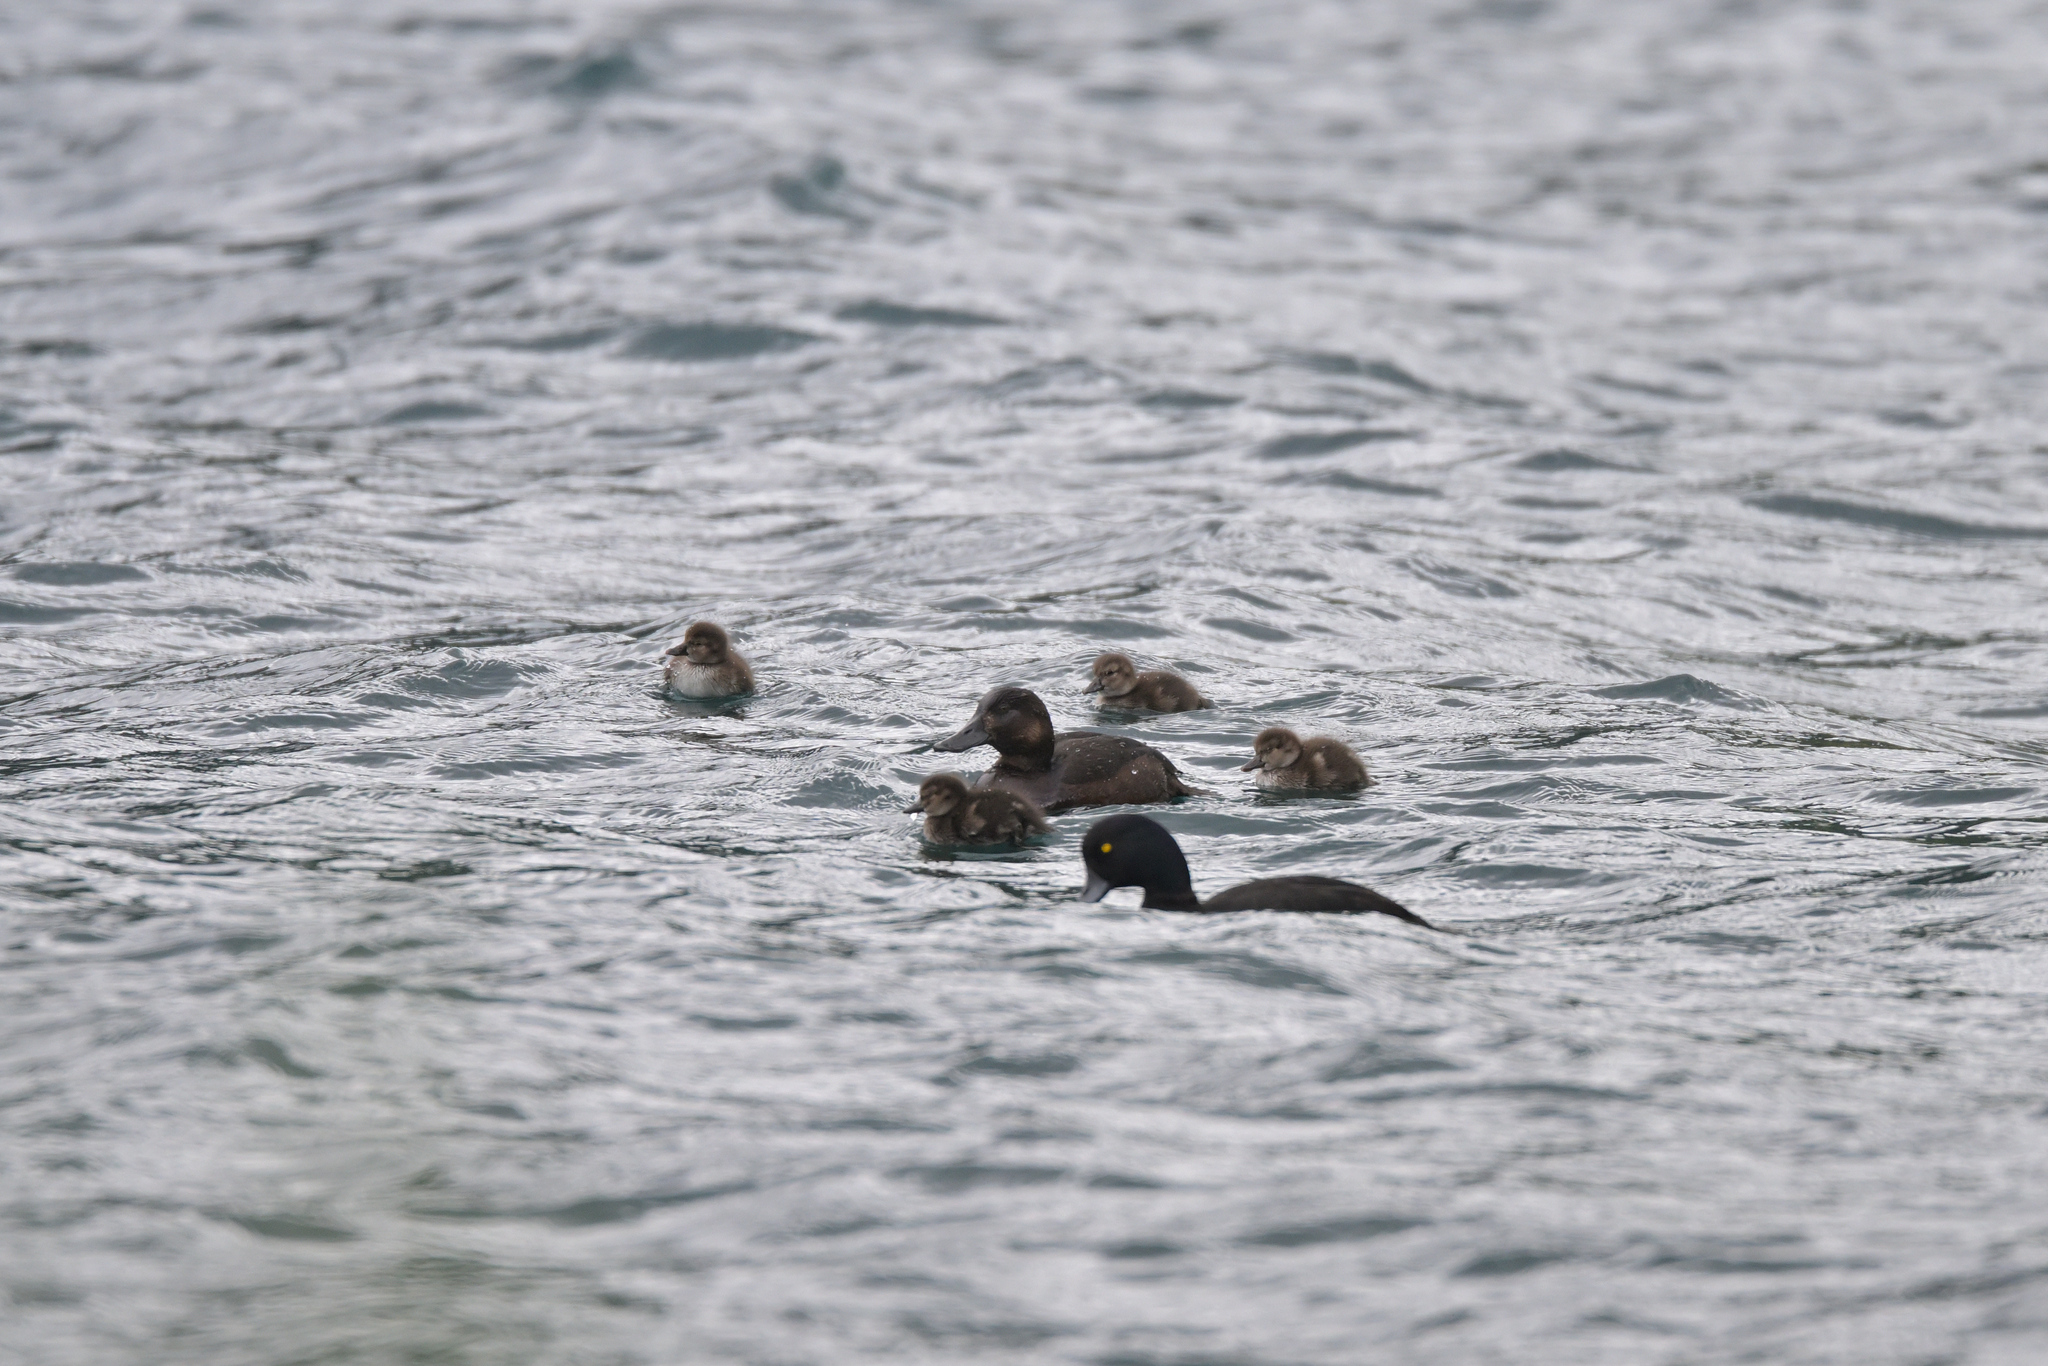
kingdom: Animalia
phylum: Chordata
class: Aves
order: Anseriformes
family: Anatidae
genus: Aythya
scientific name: Aythya novaeseelandiae
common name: New zealand scaup
